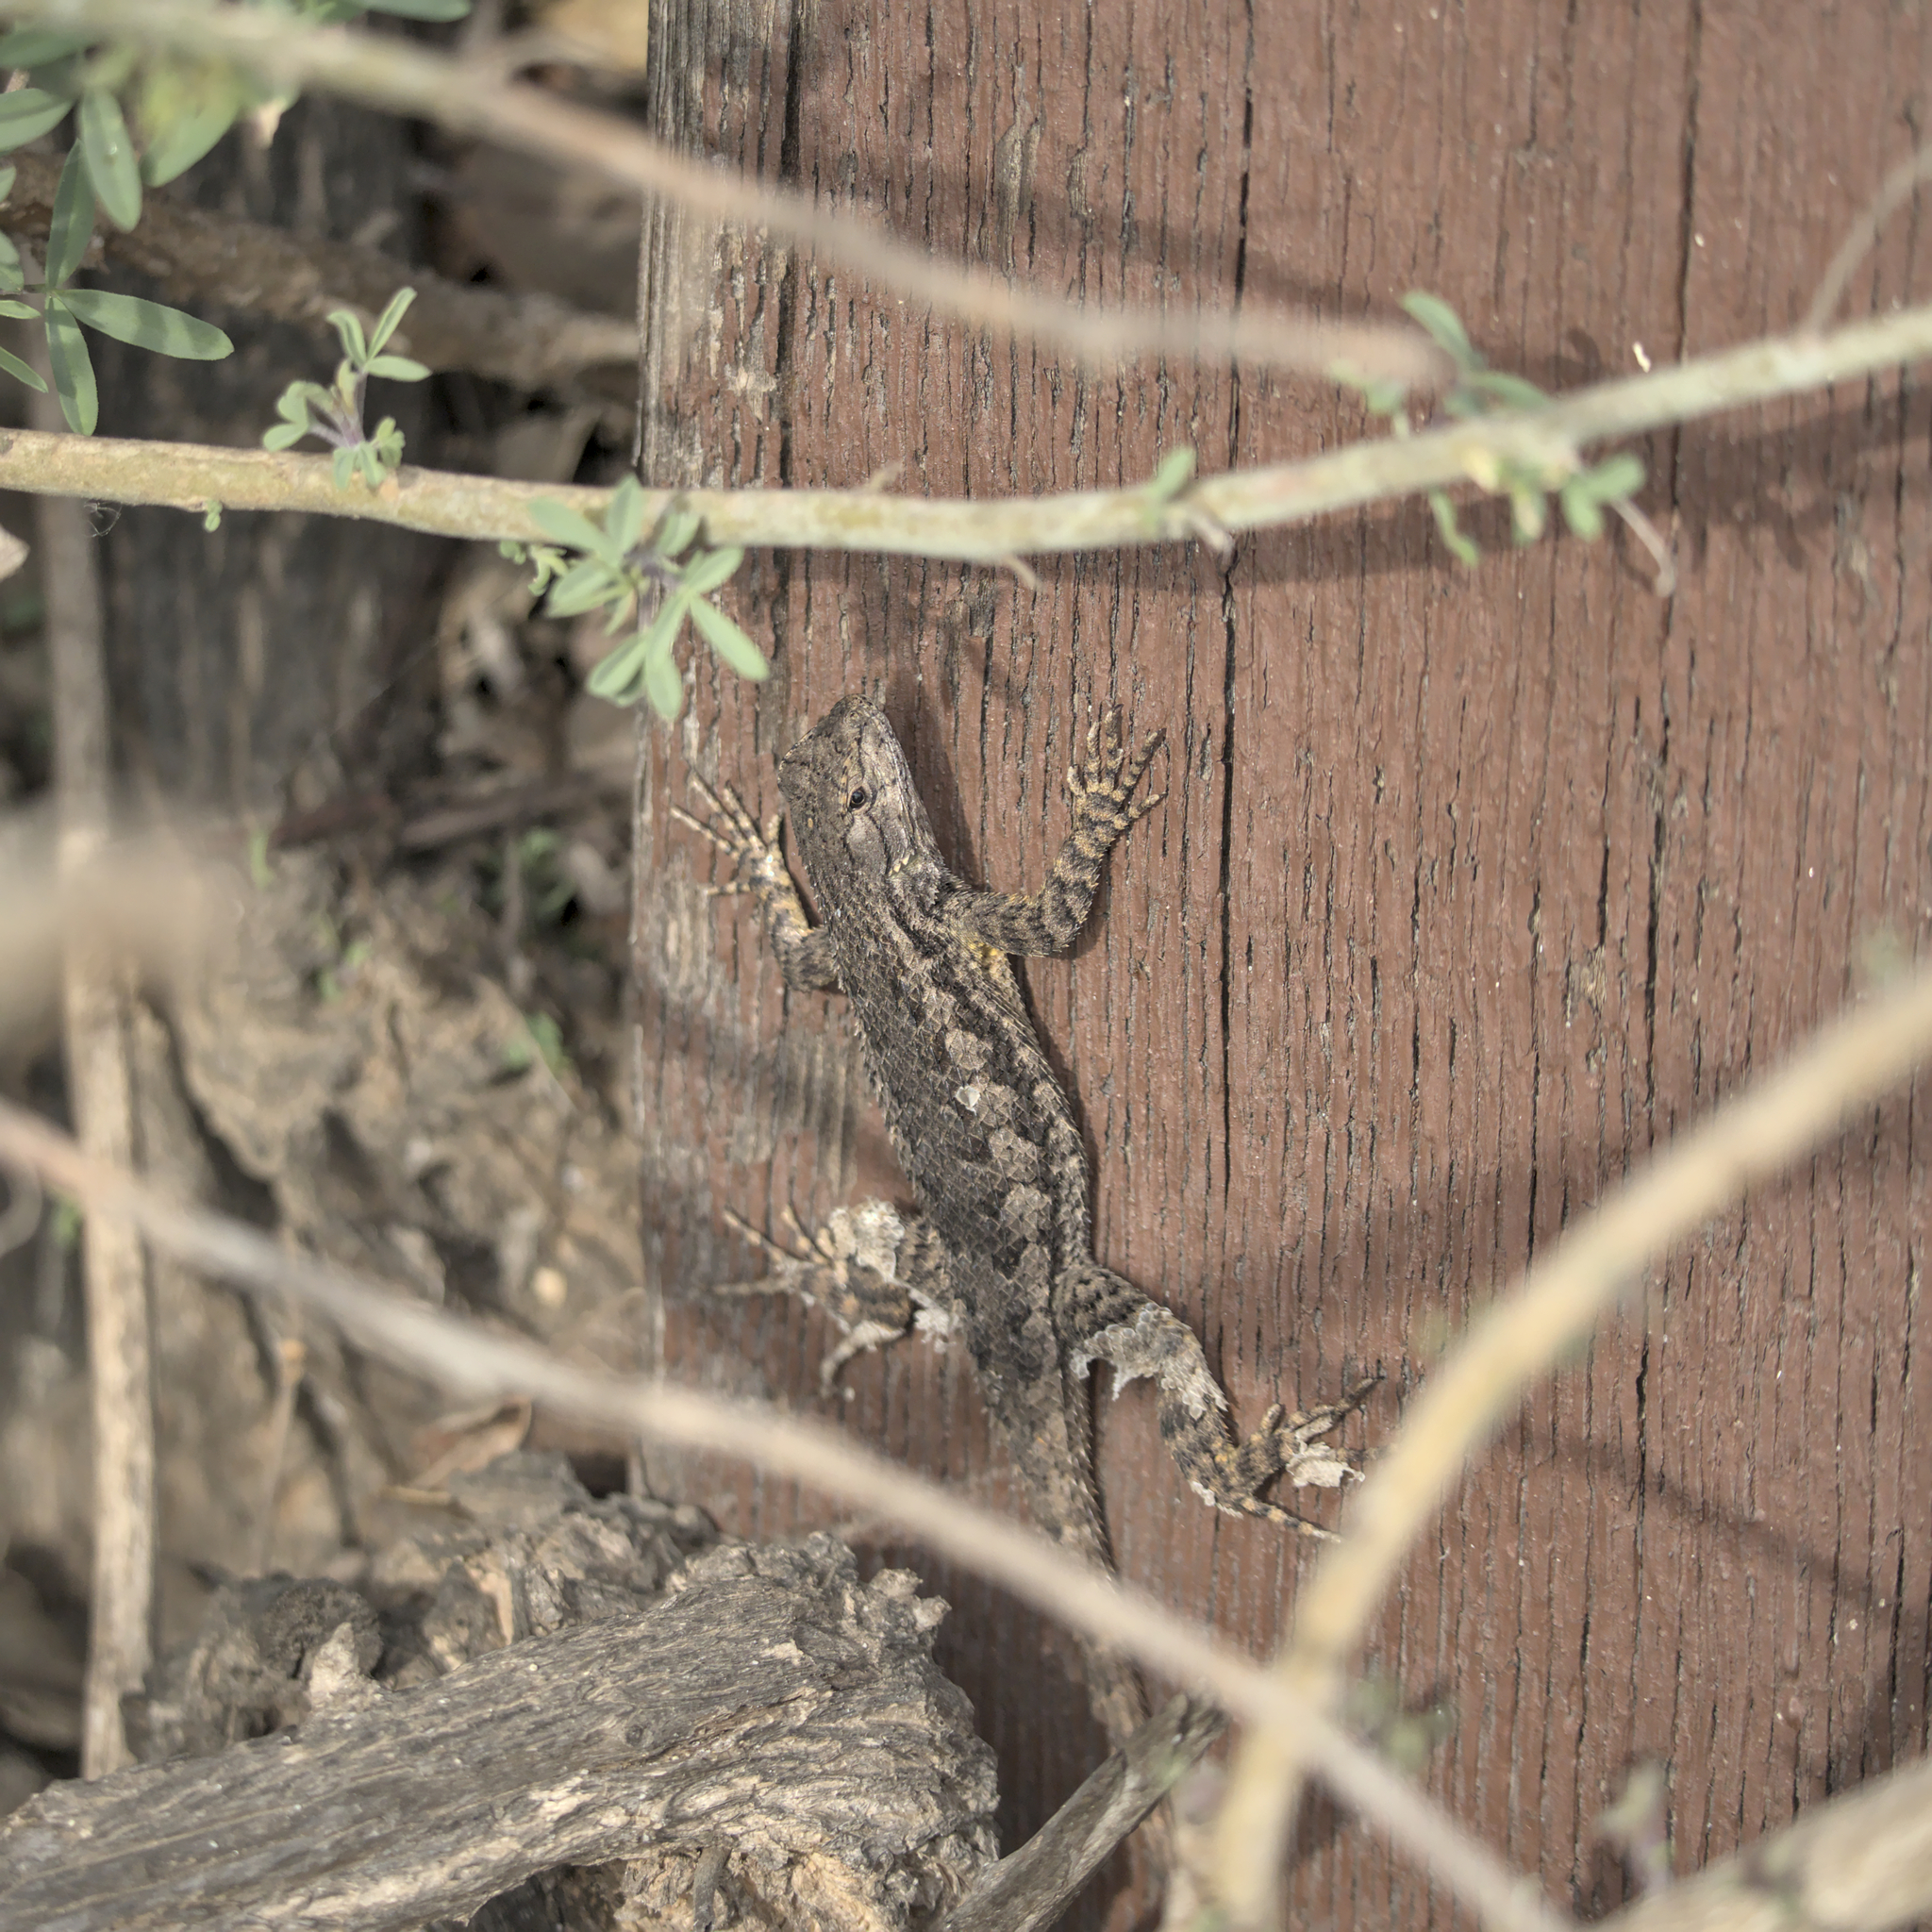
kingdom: Animalia
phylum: Chordata
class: Squamata
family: Phrynosomatidae
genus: Sceloporus
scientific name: Sceloporus occidentalis
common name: Western fence lizard
